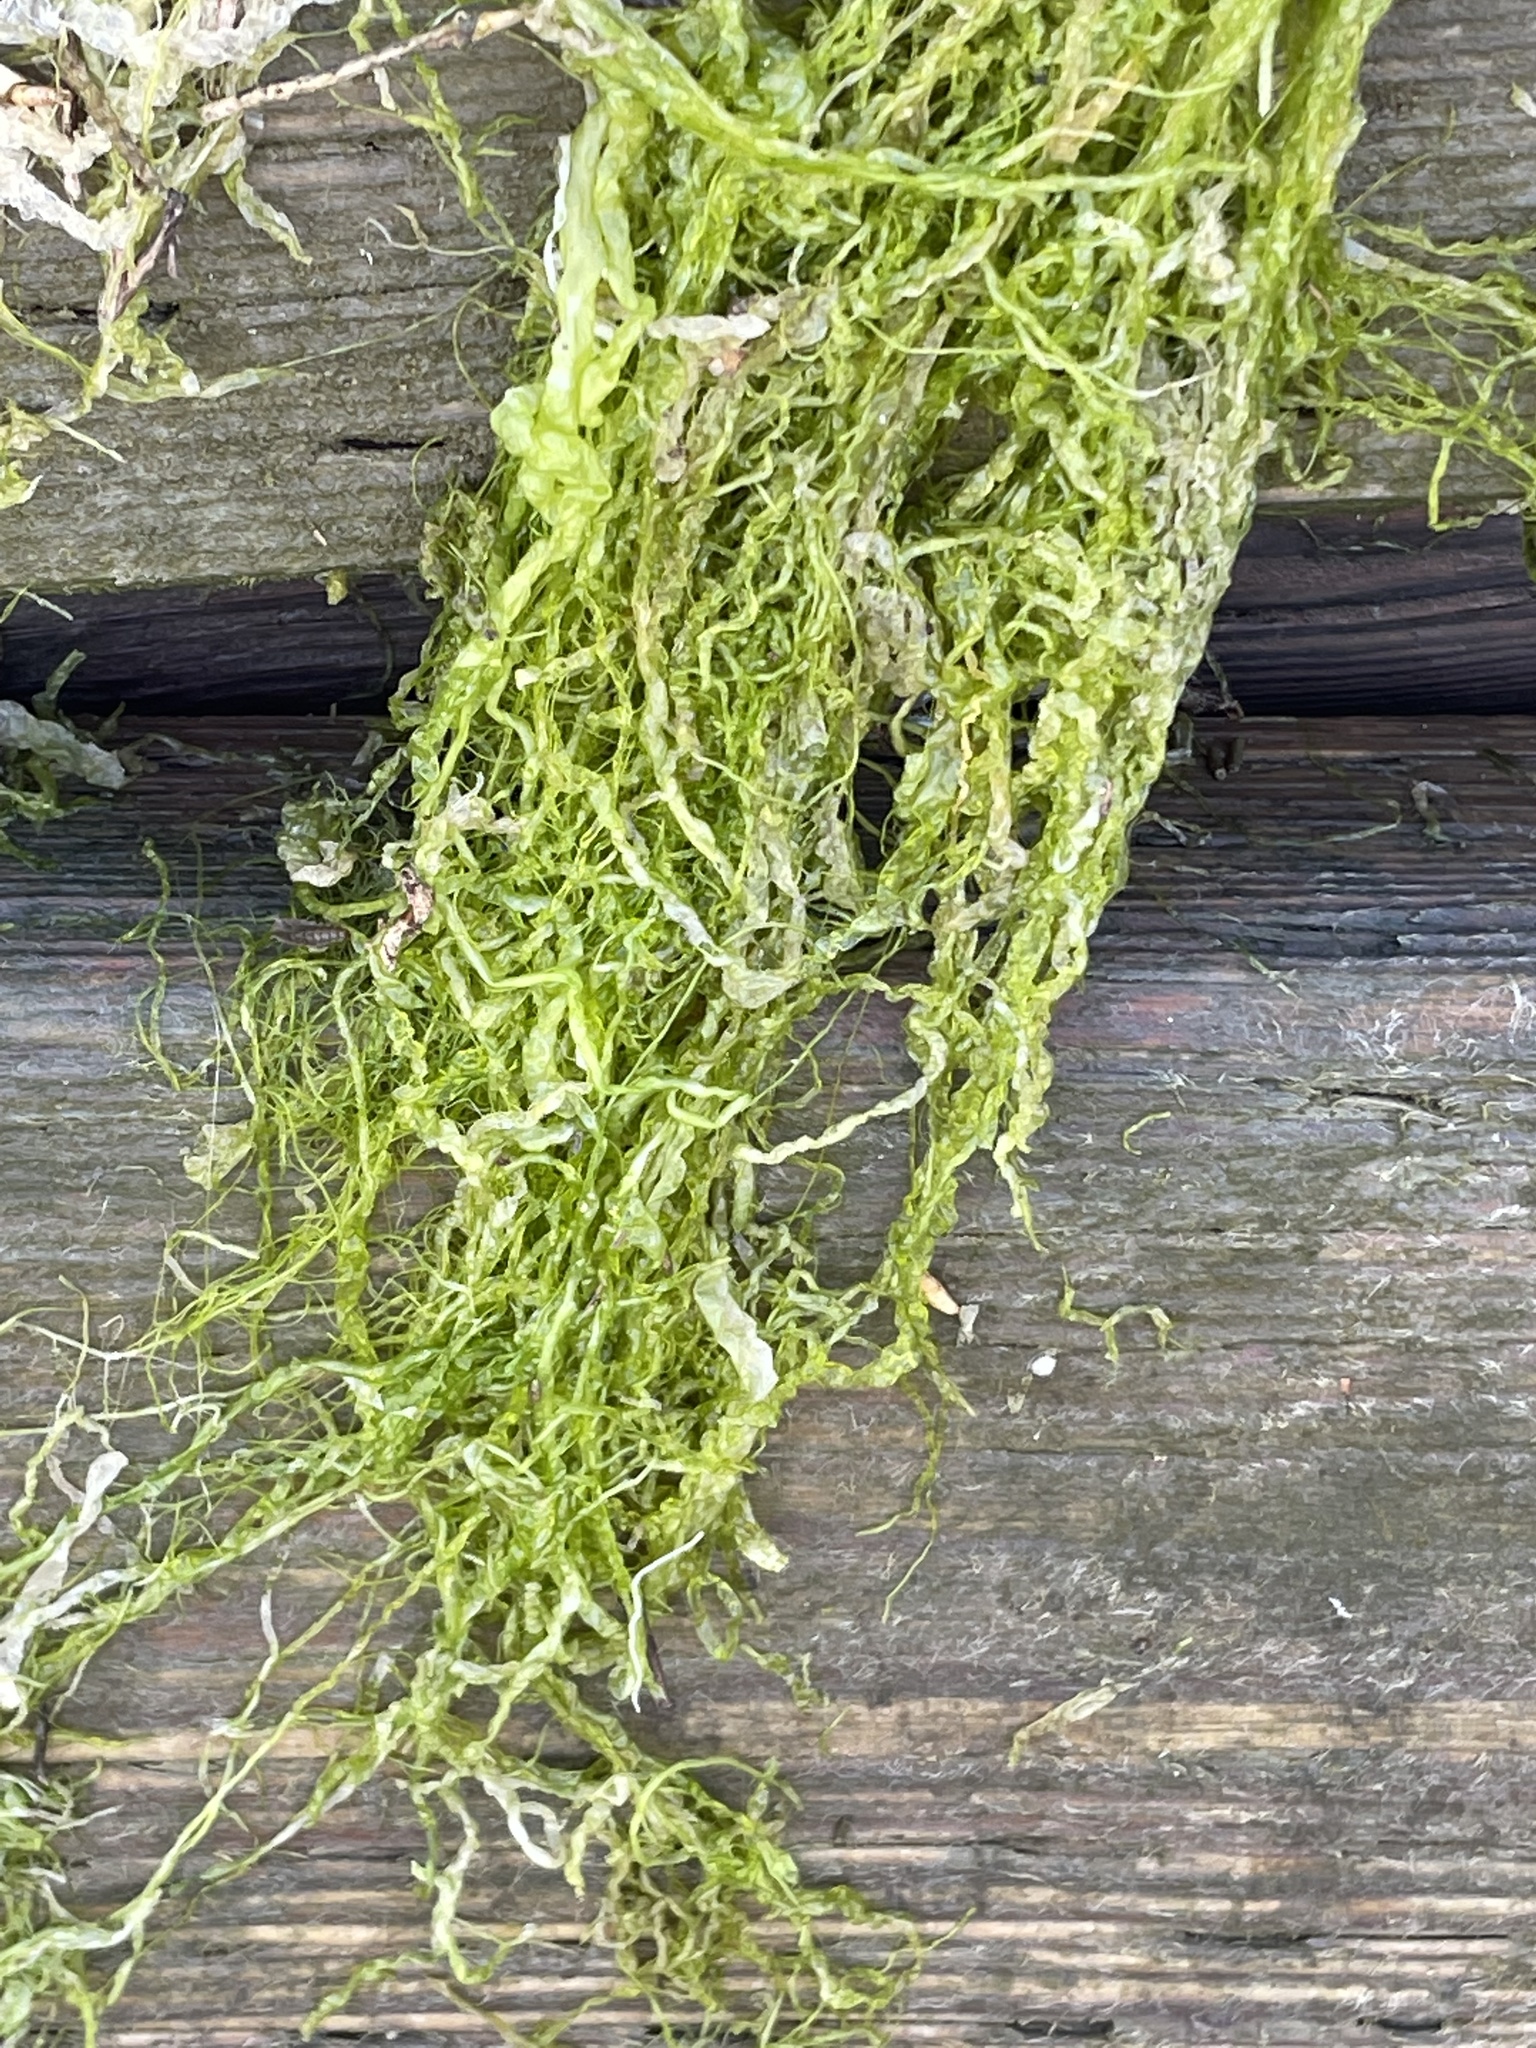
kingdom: Plantae
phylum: Chlorophyta
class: Ulvophyceae
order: Ulvales
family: Ulvaceae
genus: Ulva
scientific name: Ulva intestinalis
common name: Gut weed
